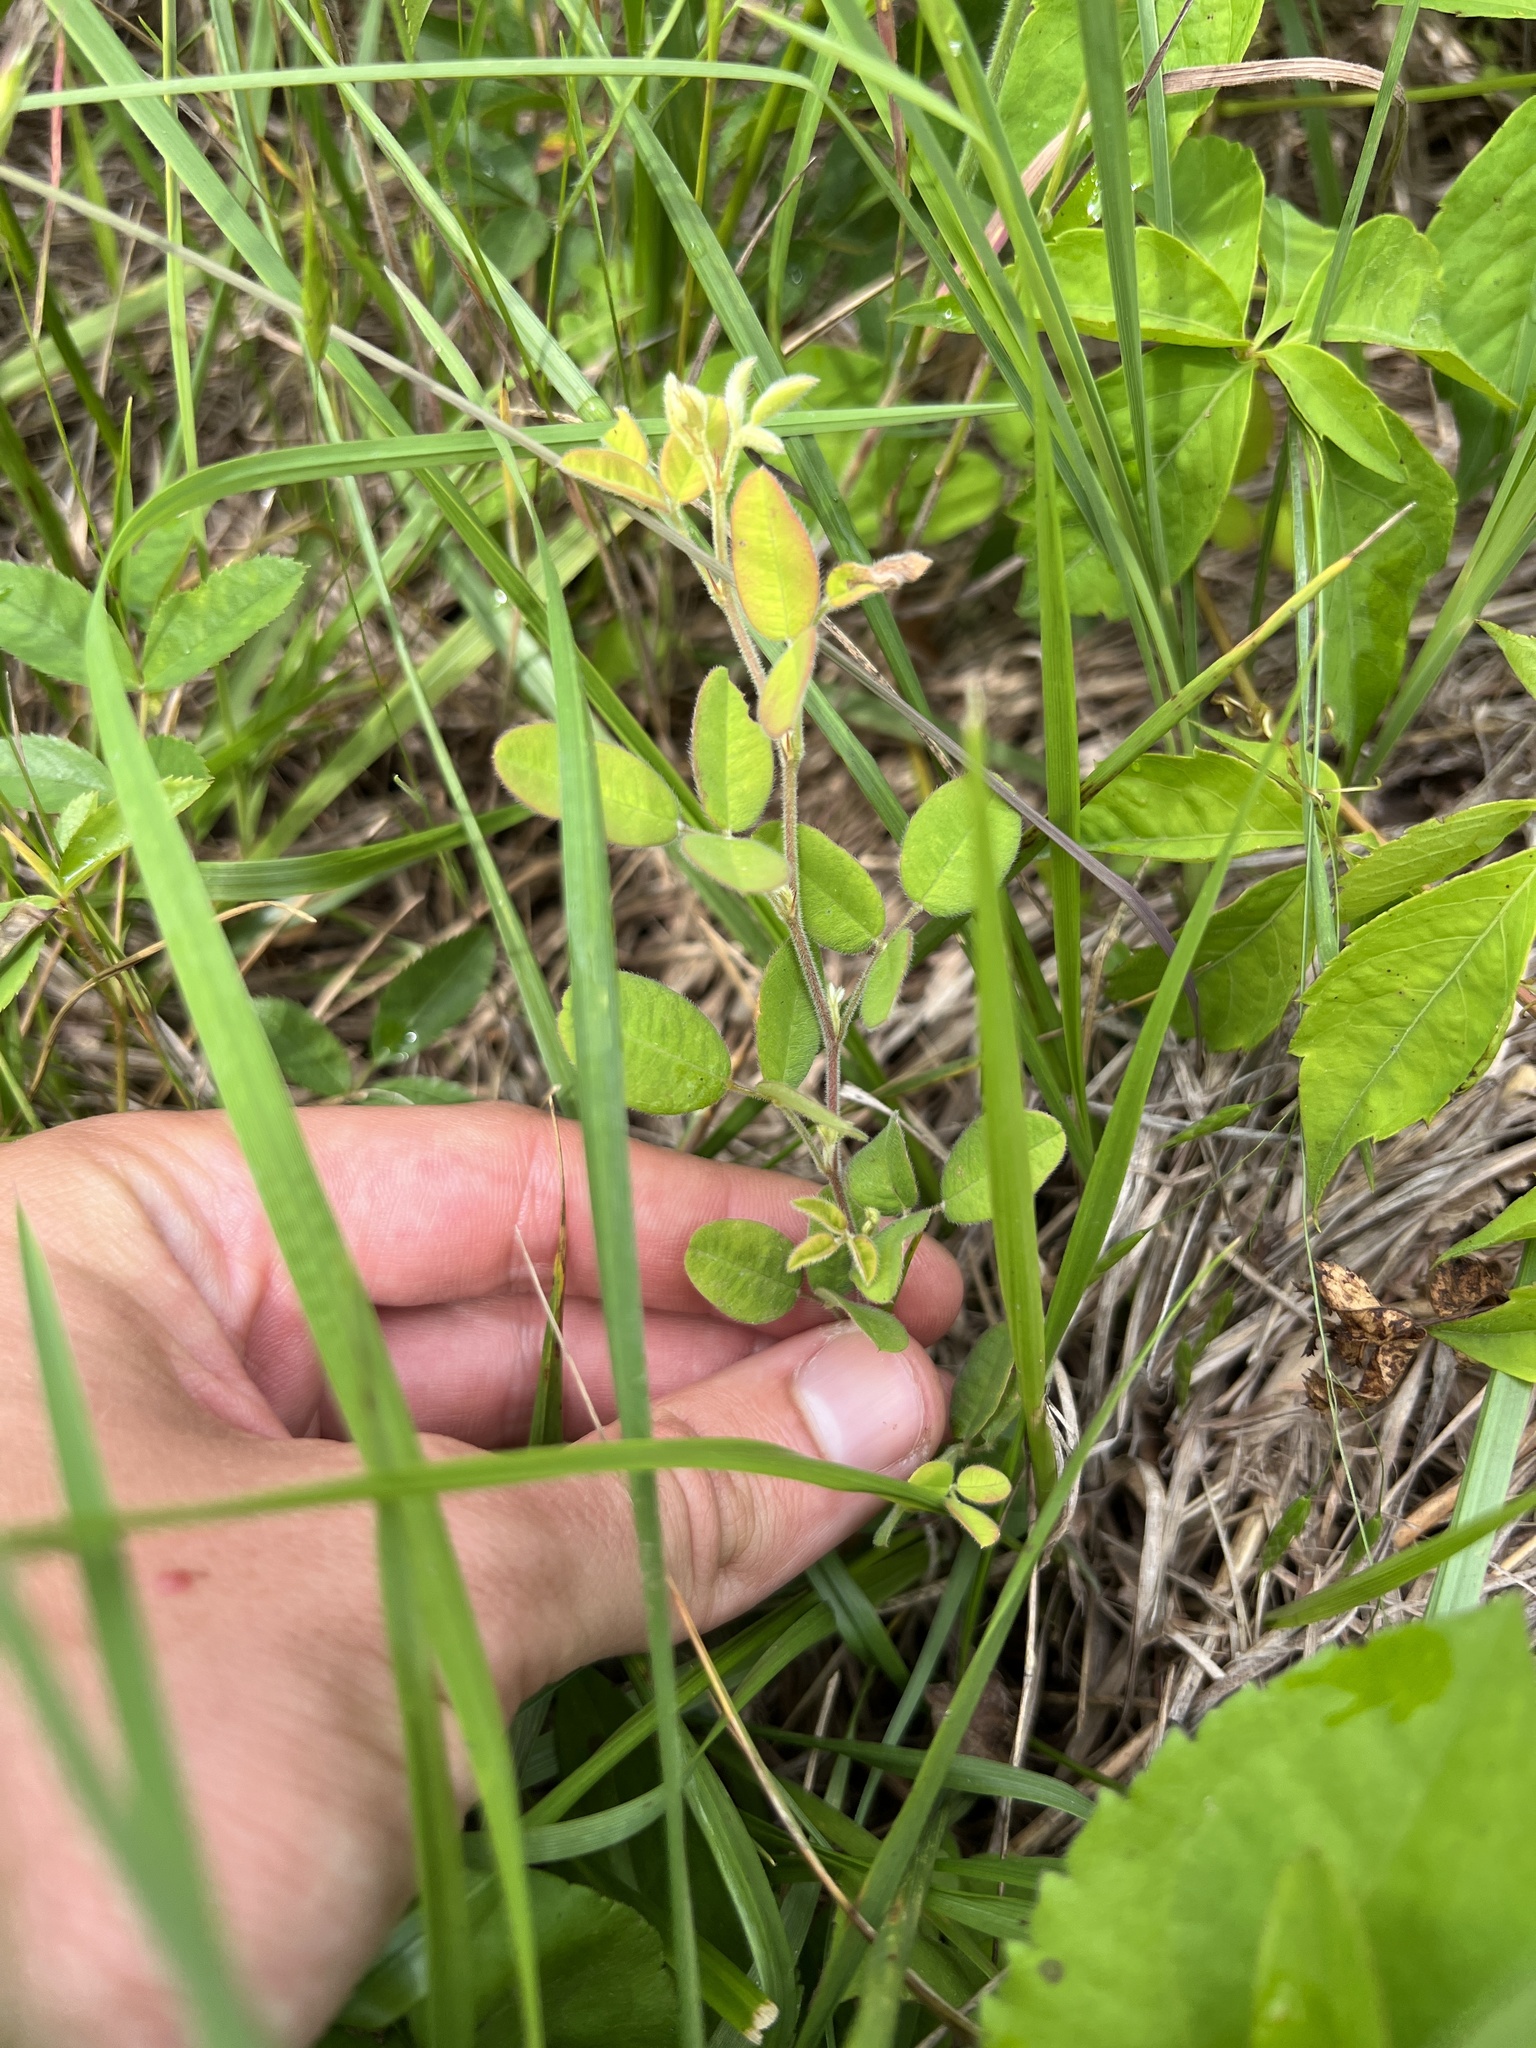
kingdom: Plantae
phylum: Tracheophyta
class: Magnoliopsida
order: Fabales
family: Fabaceae
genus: Lespedeza
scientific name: Lespedeza procumbens
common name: Downy trailing bush-clover
